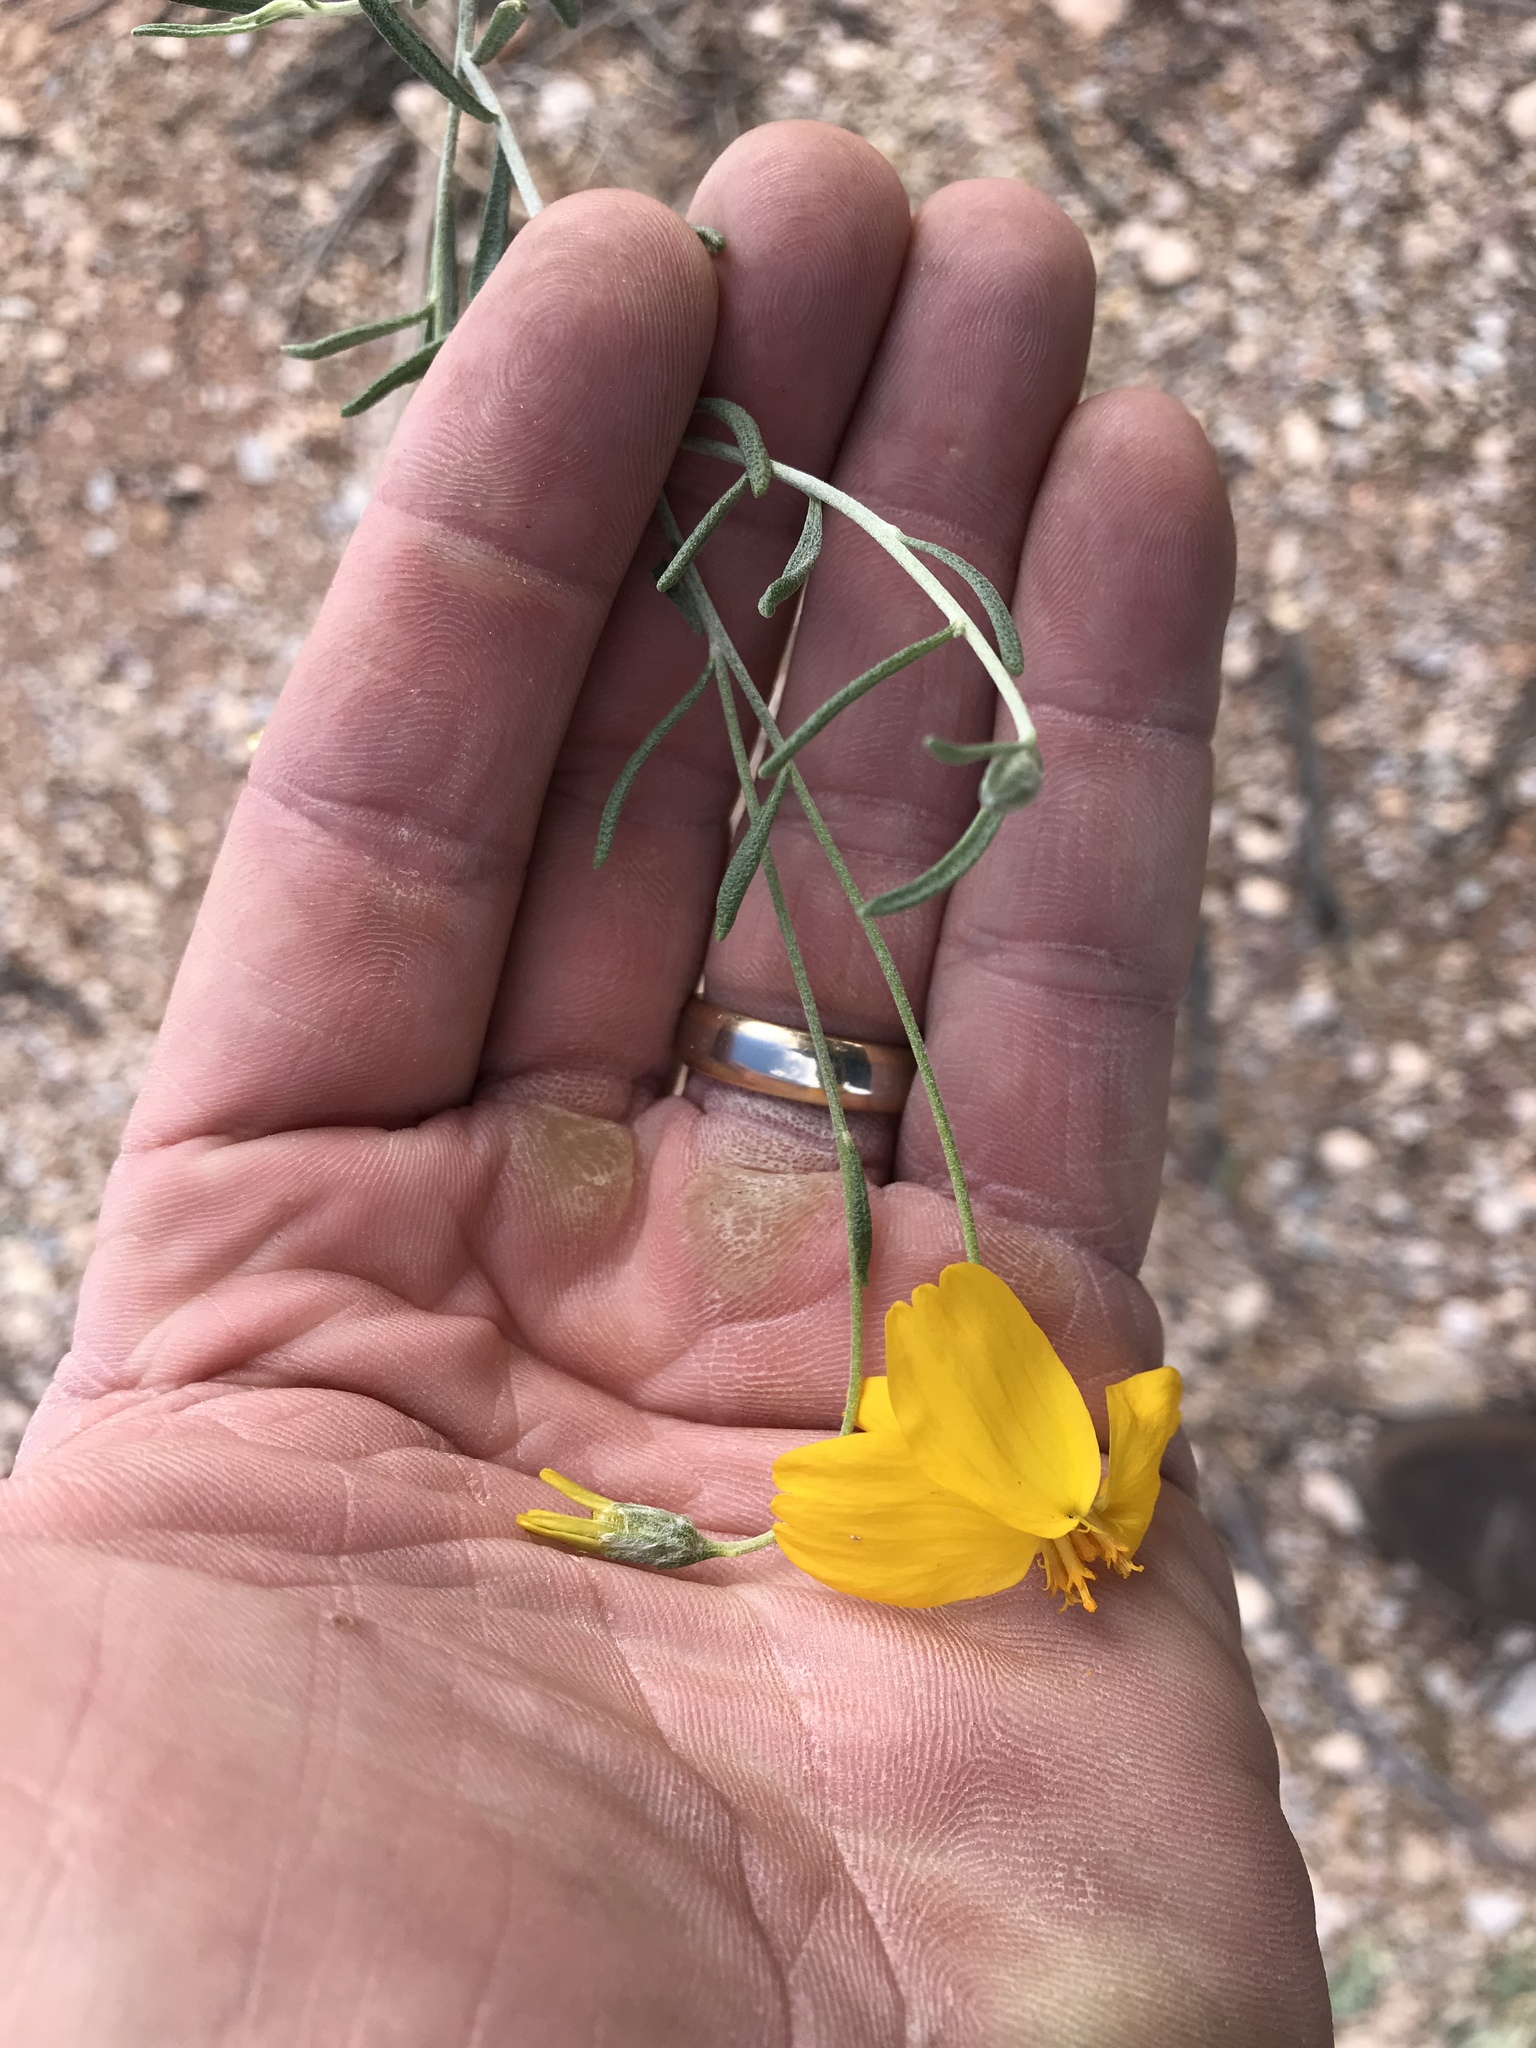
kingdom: Plantae
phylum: Tracheophyta
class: Magnoliopsida
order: Asterales
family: Asteraceae
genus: Psilostrophe
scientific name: Psilostrophe cooperi
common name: White-stem paper-flower
